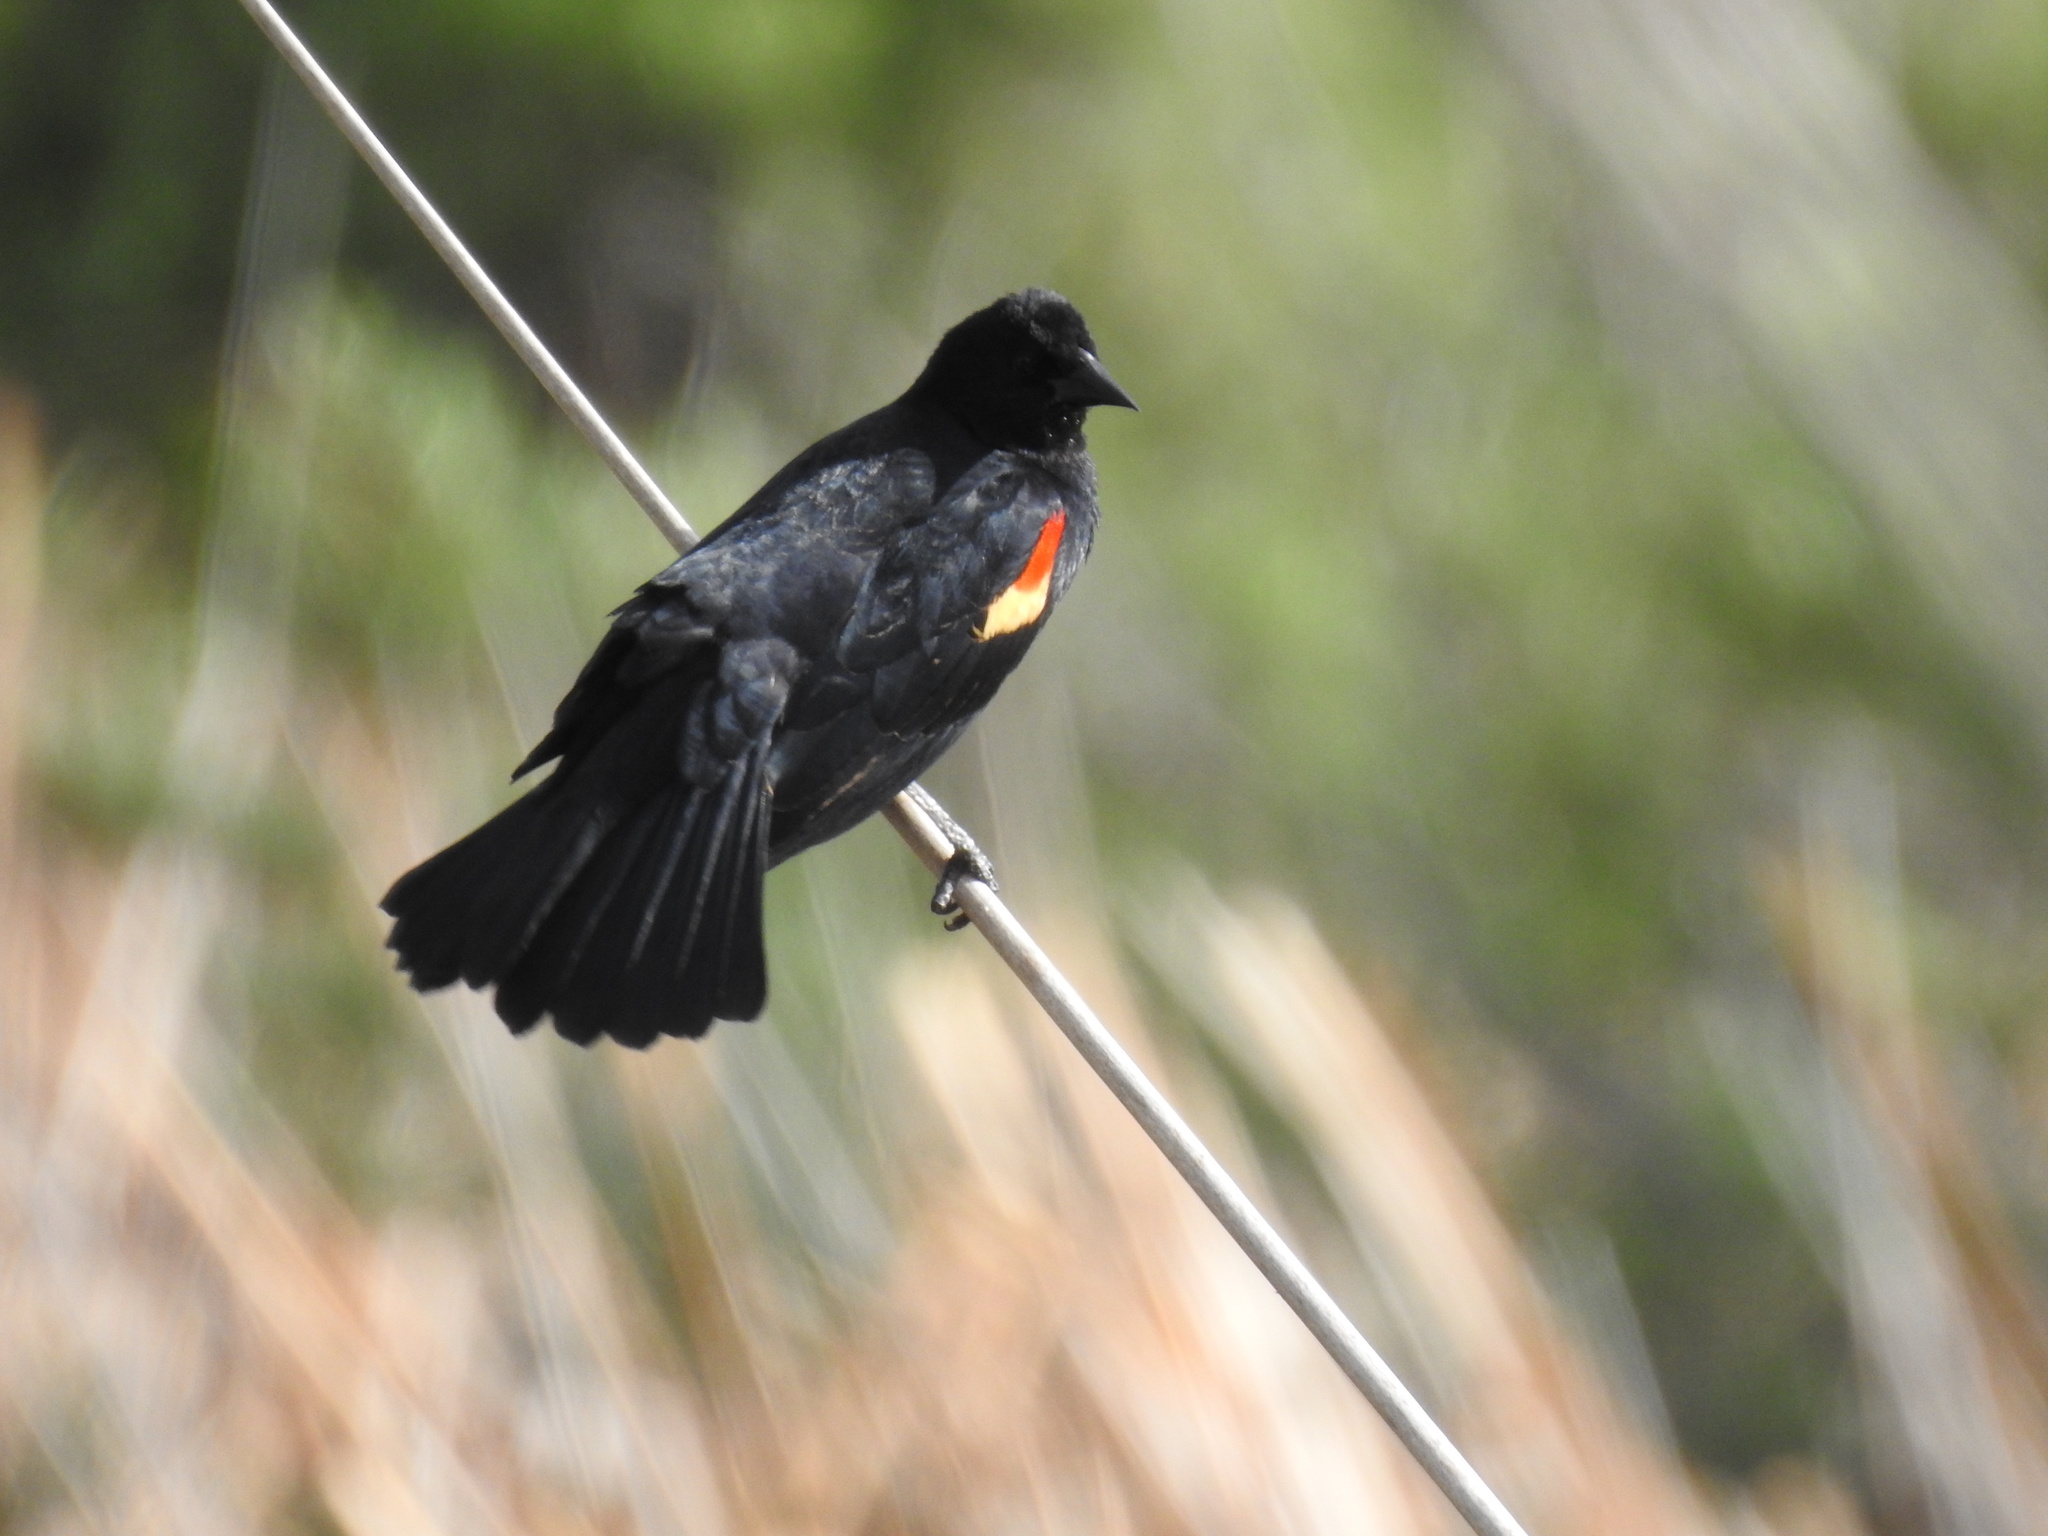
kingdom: Animalia
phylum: Chordata
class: Aves
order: Passeriformes
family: Icteridae
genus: Agelaius
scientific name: Agelaius phoeniceus
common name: Red-winged blackbird
